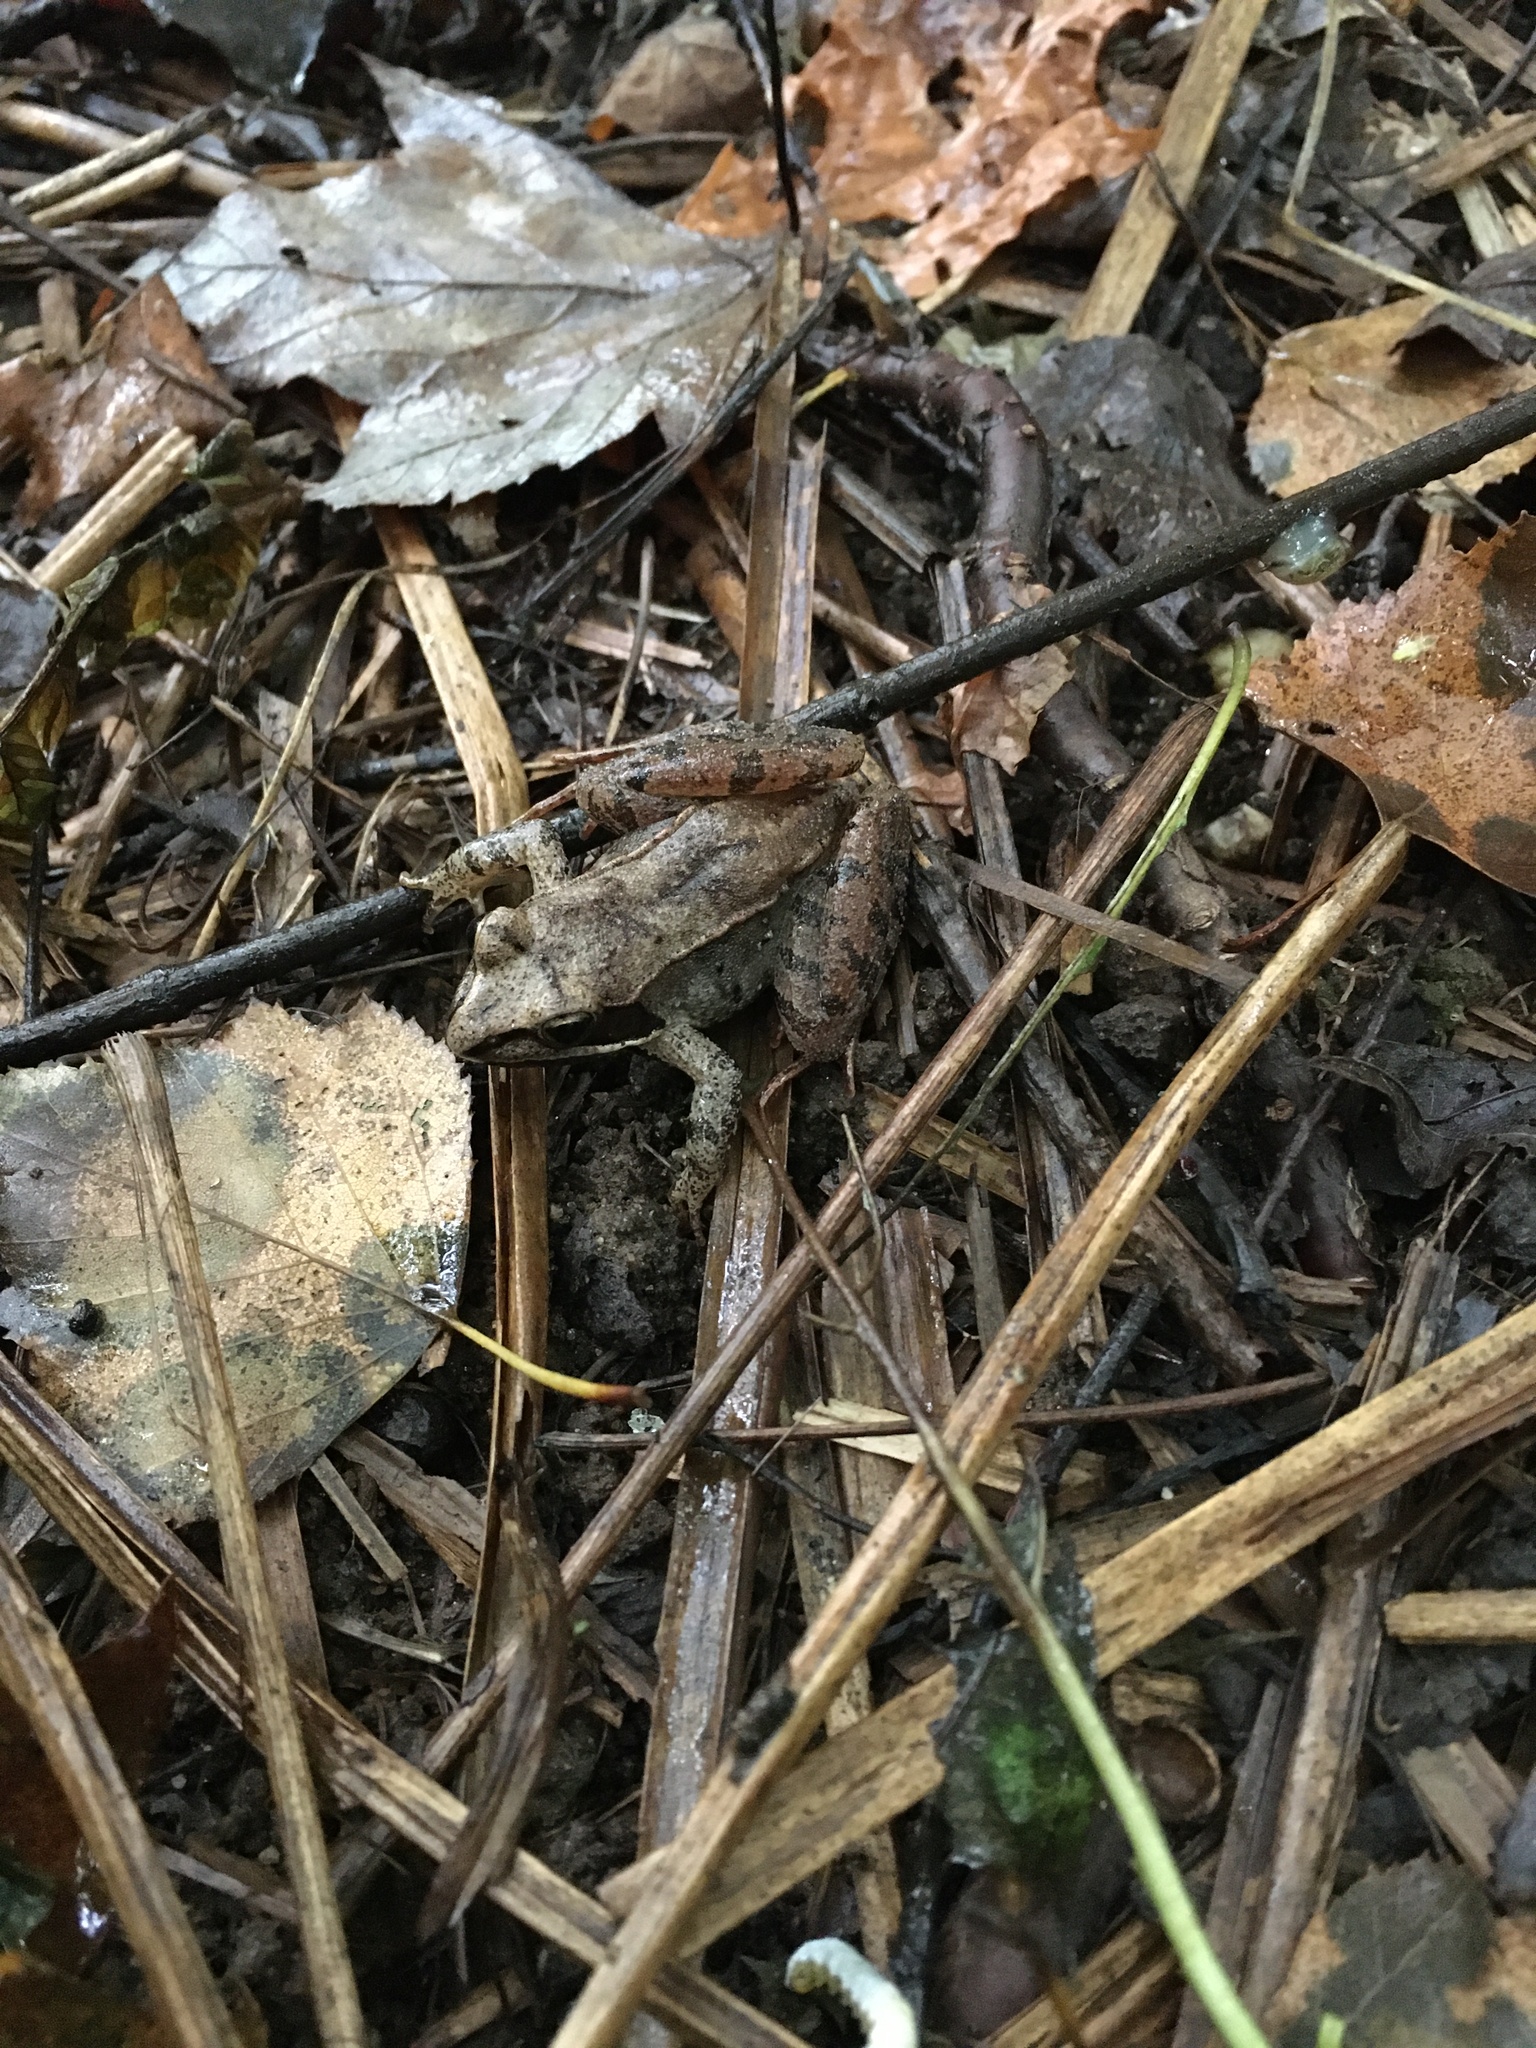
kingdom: Animalia
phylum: Chordata
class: Amphibia
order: Anura
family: Ranidae
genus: Lithobates
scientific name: Lithobates sylvaticus
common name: Wood frog
